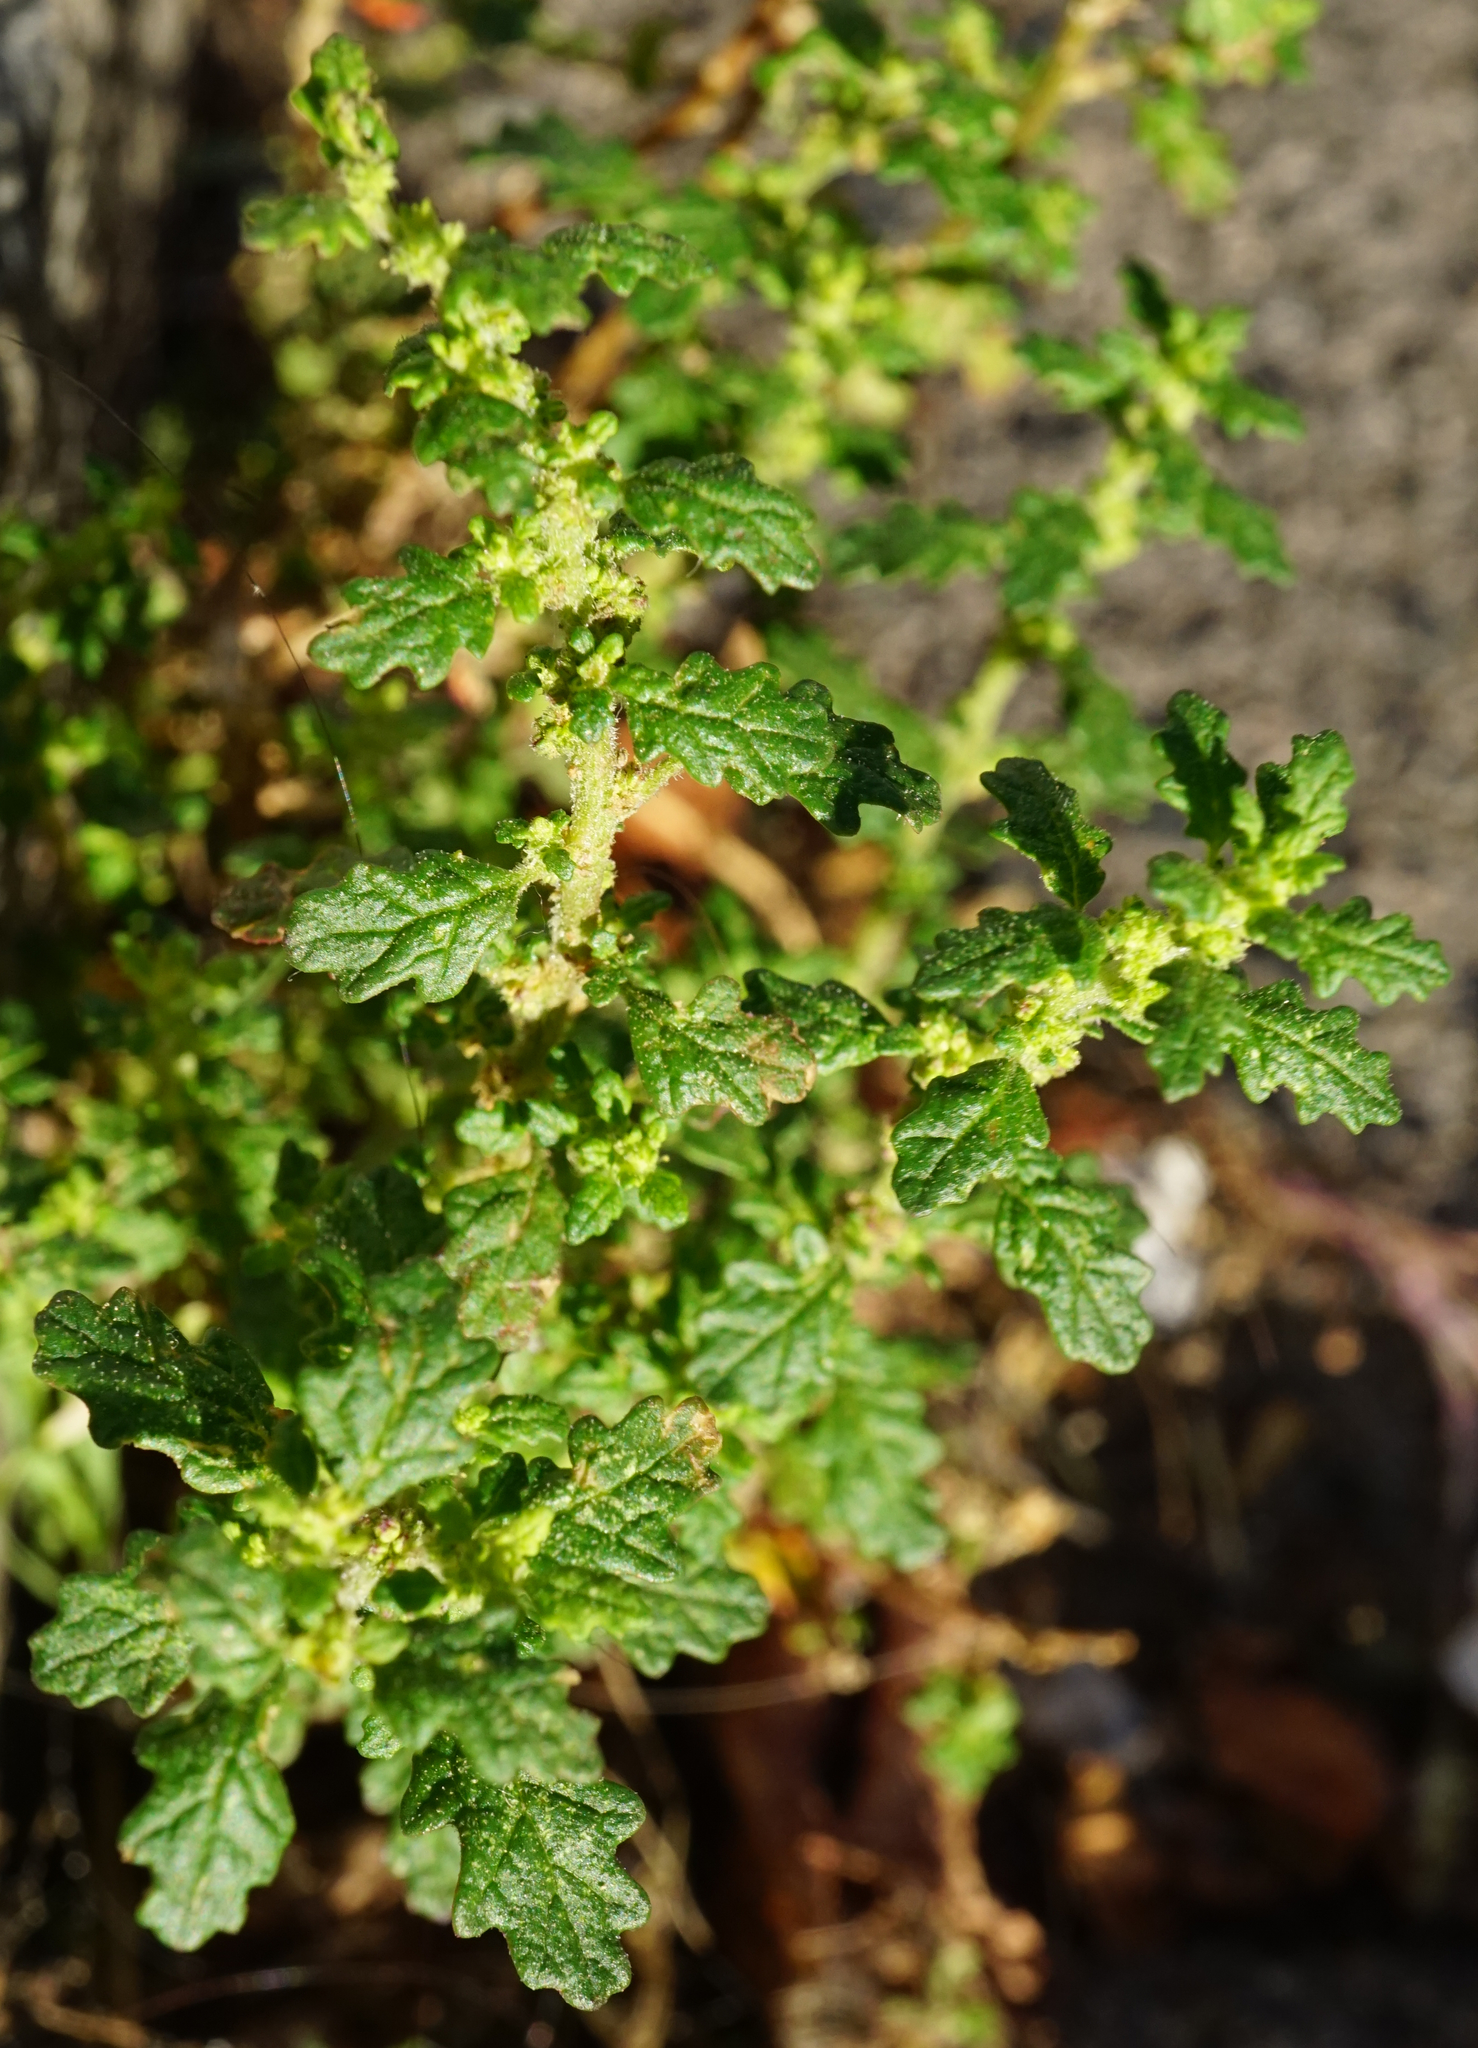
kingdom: Plantae
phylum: Tracheophyta
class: Magnoliopsida
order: Caryophyllales
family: Amaranthaceae
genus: Dysphania
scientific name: Dysphania pumilio
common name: Clammy goosefoot
